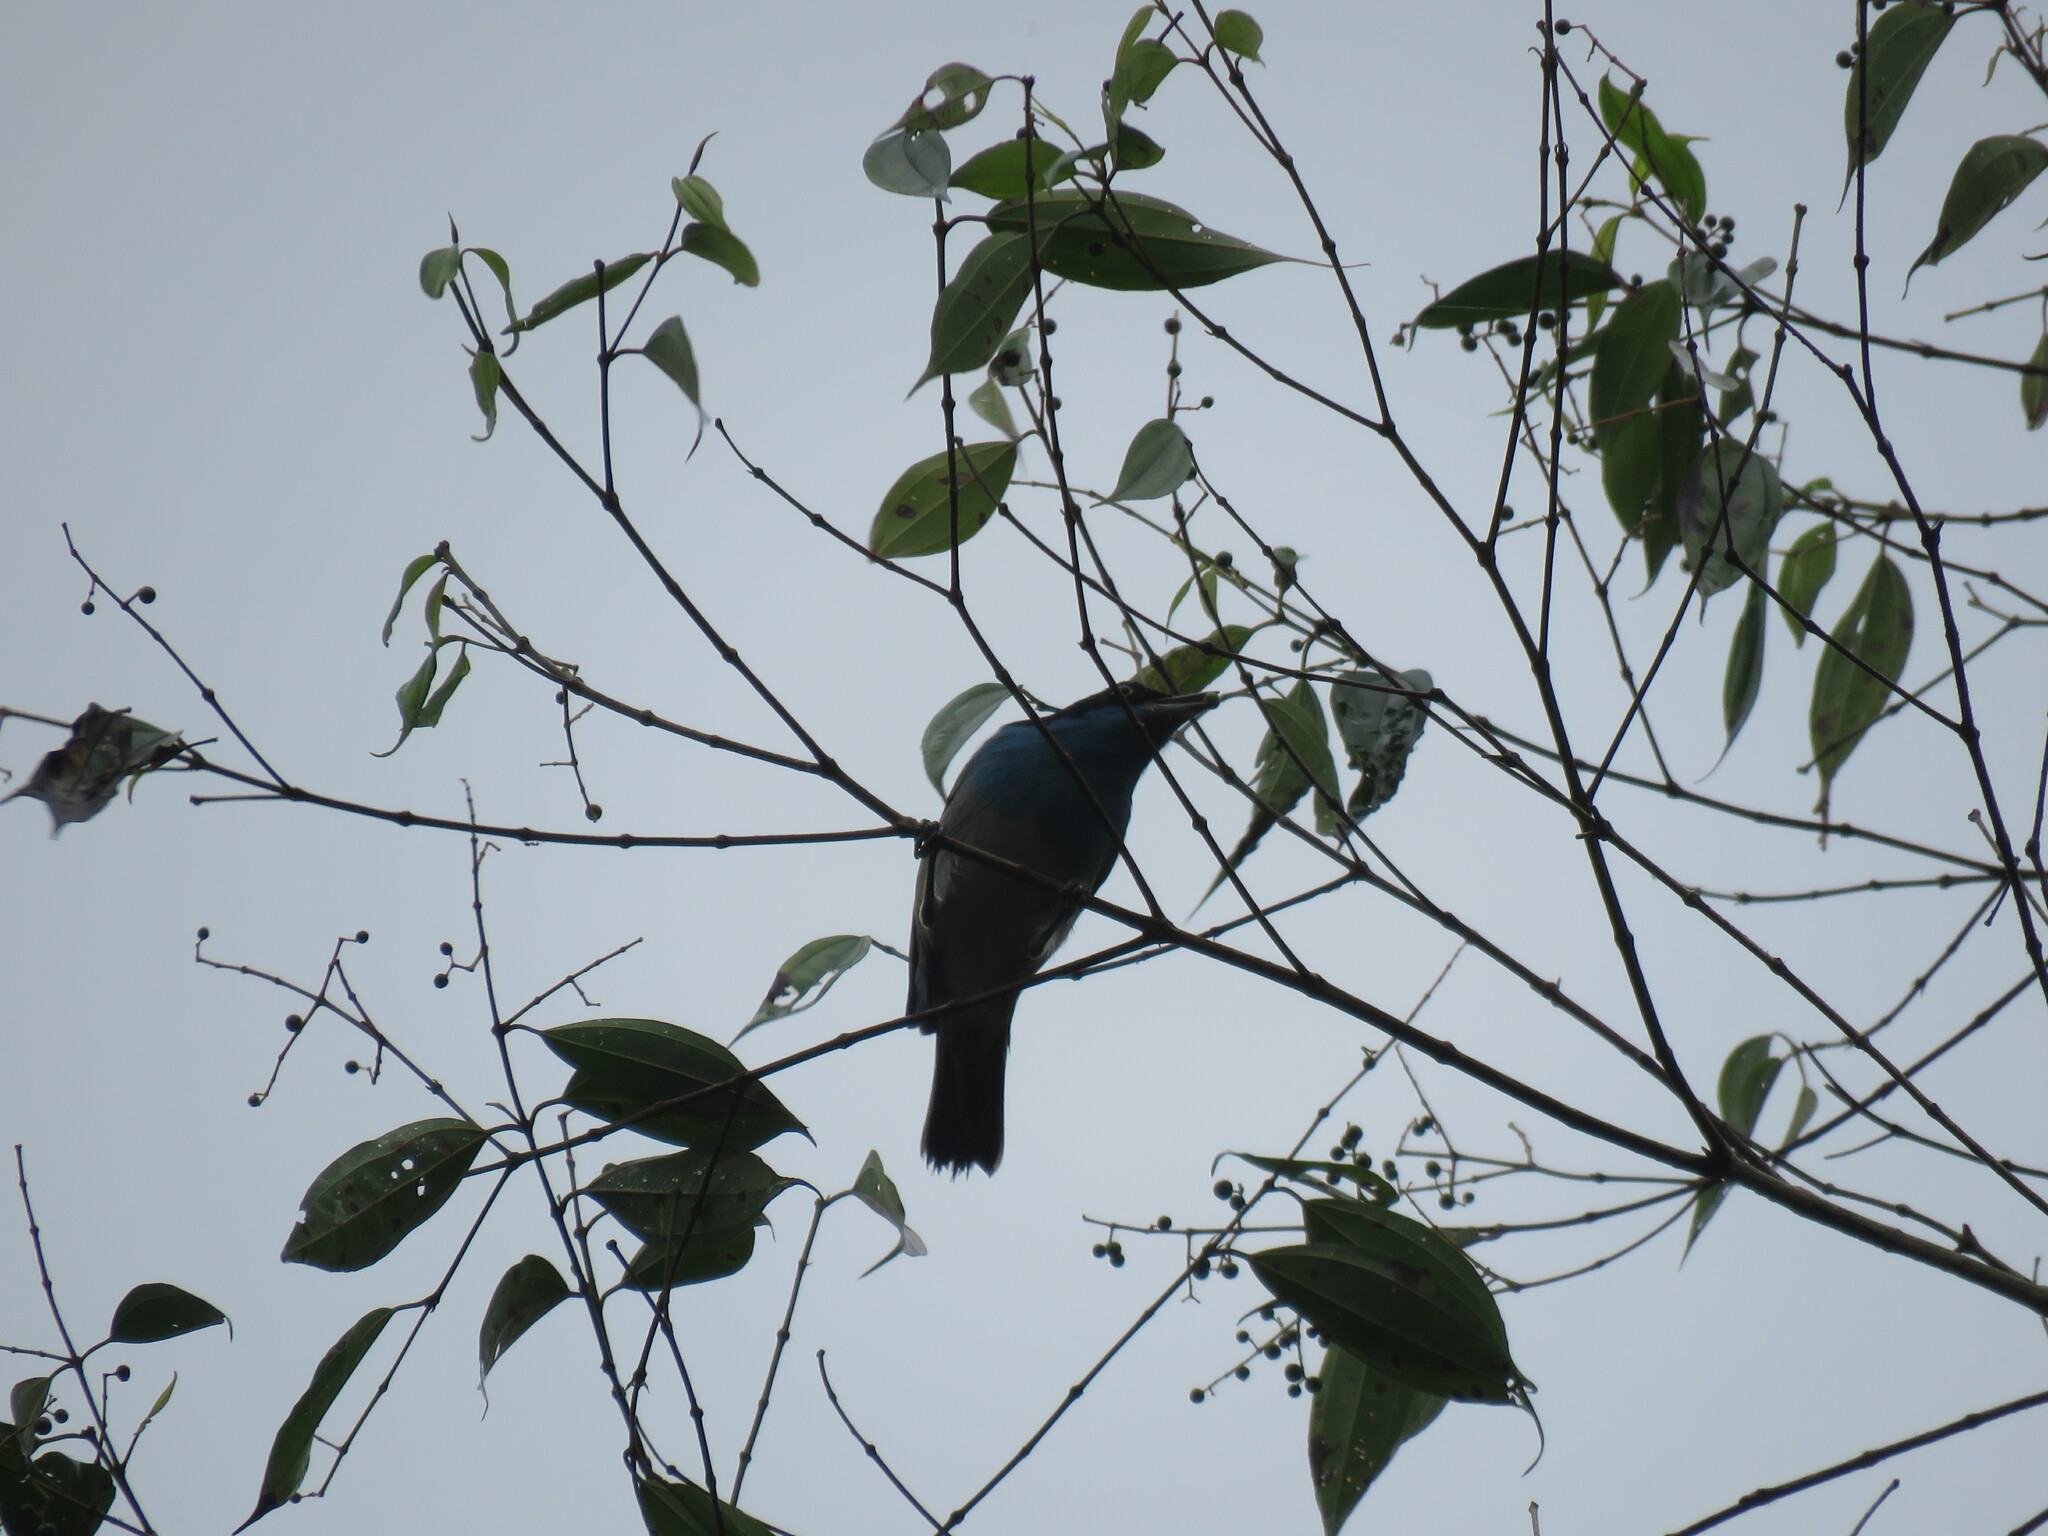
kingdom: Animalia
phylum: Chordata
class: Aves
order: Passeriformes
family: Thraupidae
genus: Dacnis
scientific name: Dacnis lineata
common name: Black-faced dacnis
